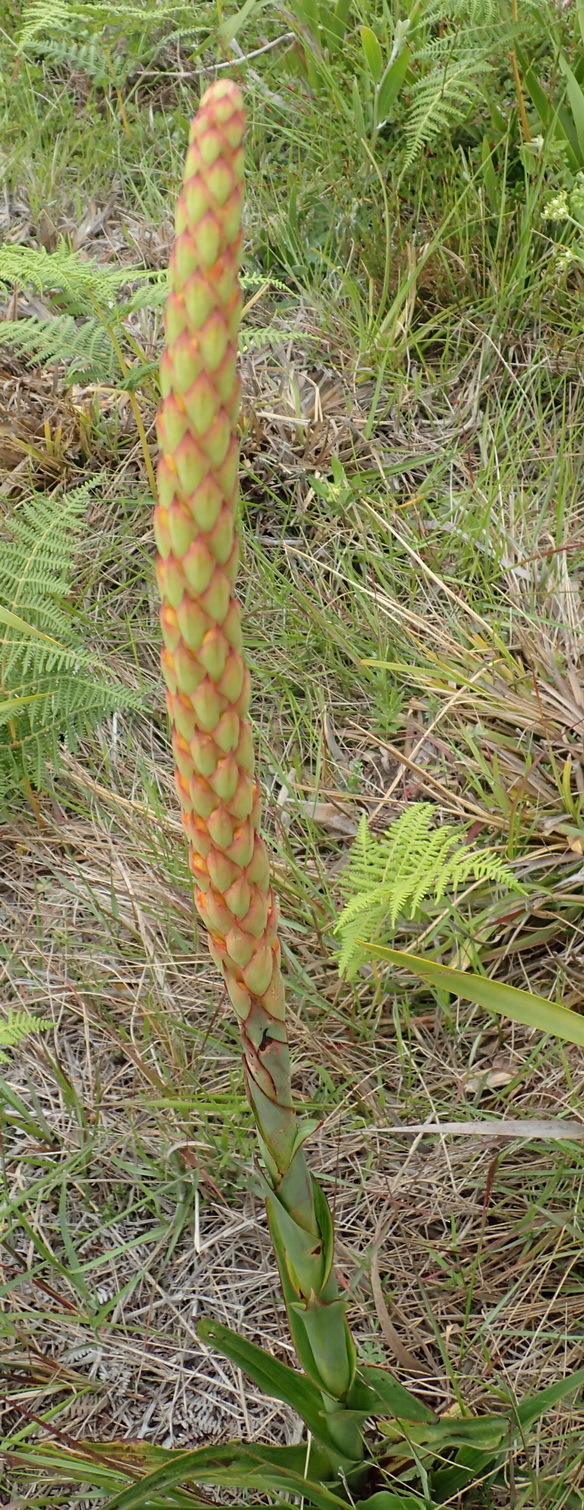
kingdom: Plantae
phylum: Tracheophyta
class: Liliopsida
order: Asparagales
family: Orchidaceae
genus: Disa
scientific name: Disa chrysostachya
